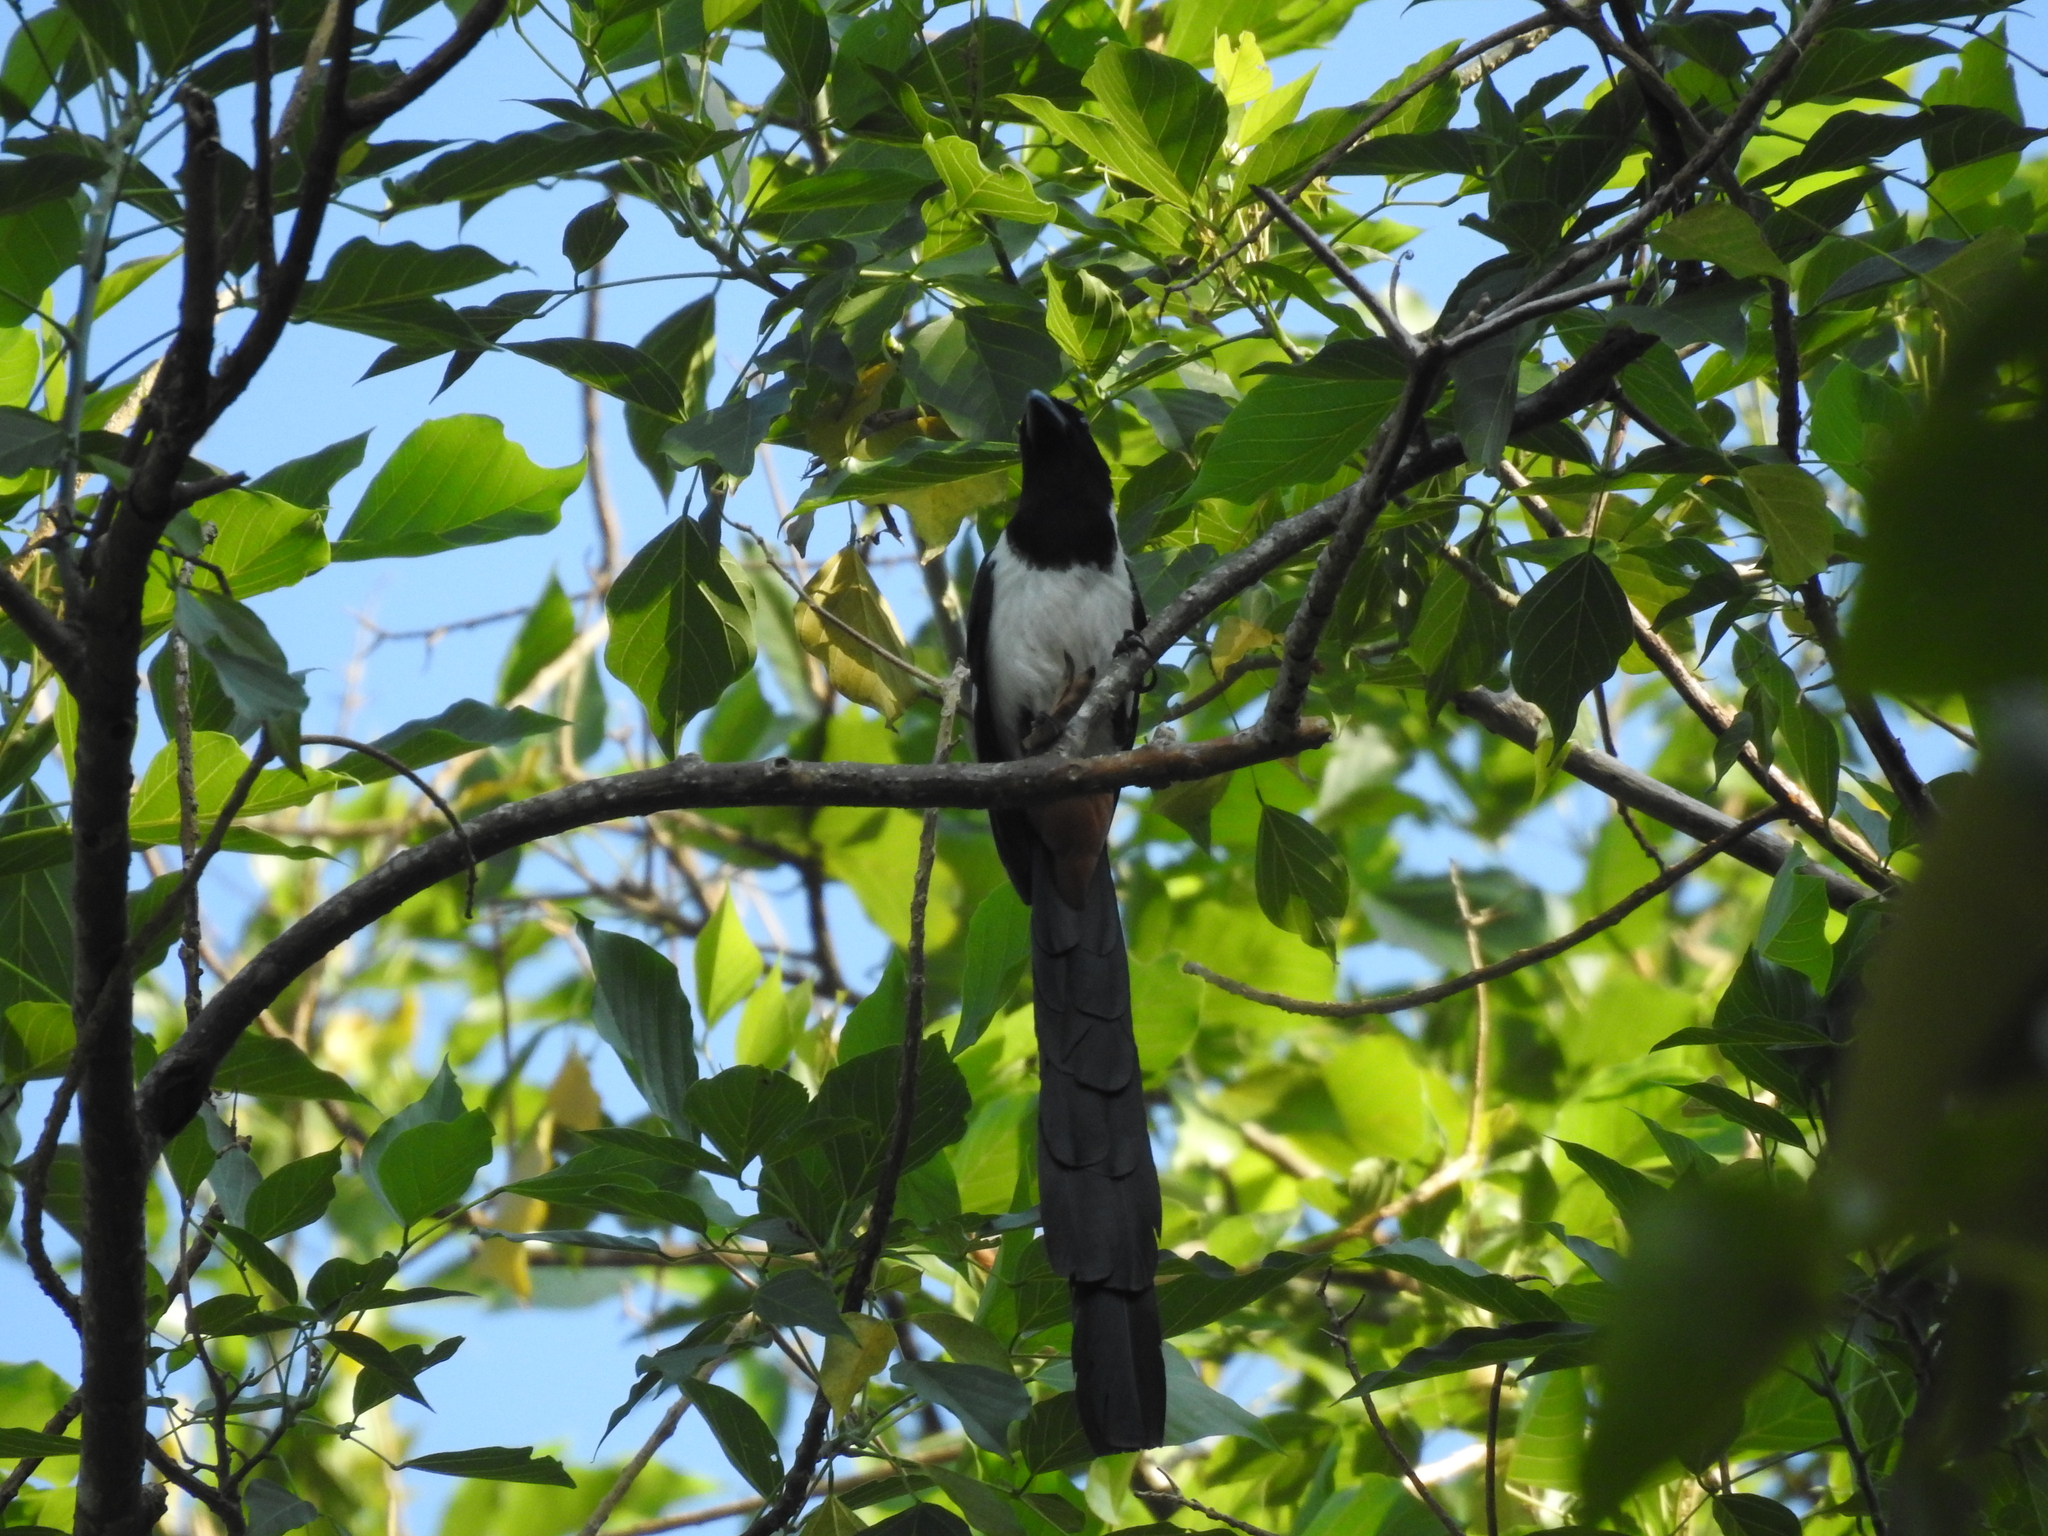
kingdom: Animalia
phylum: Chordata
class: Aves
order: Passeriformes
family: Corvidae
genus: Dendrocitta
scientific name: Dendrocitta leucogastra
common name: White-bellied treepie
